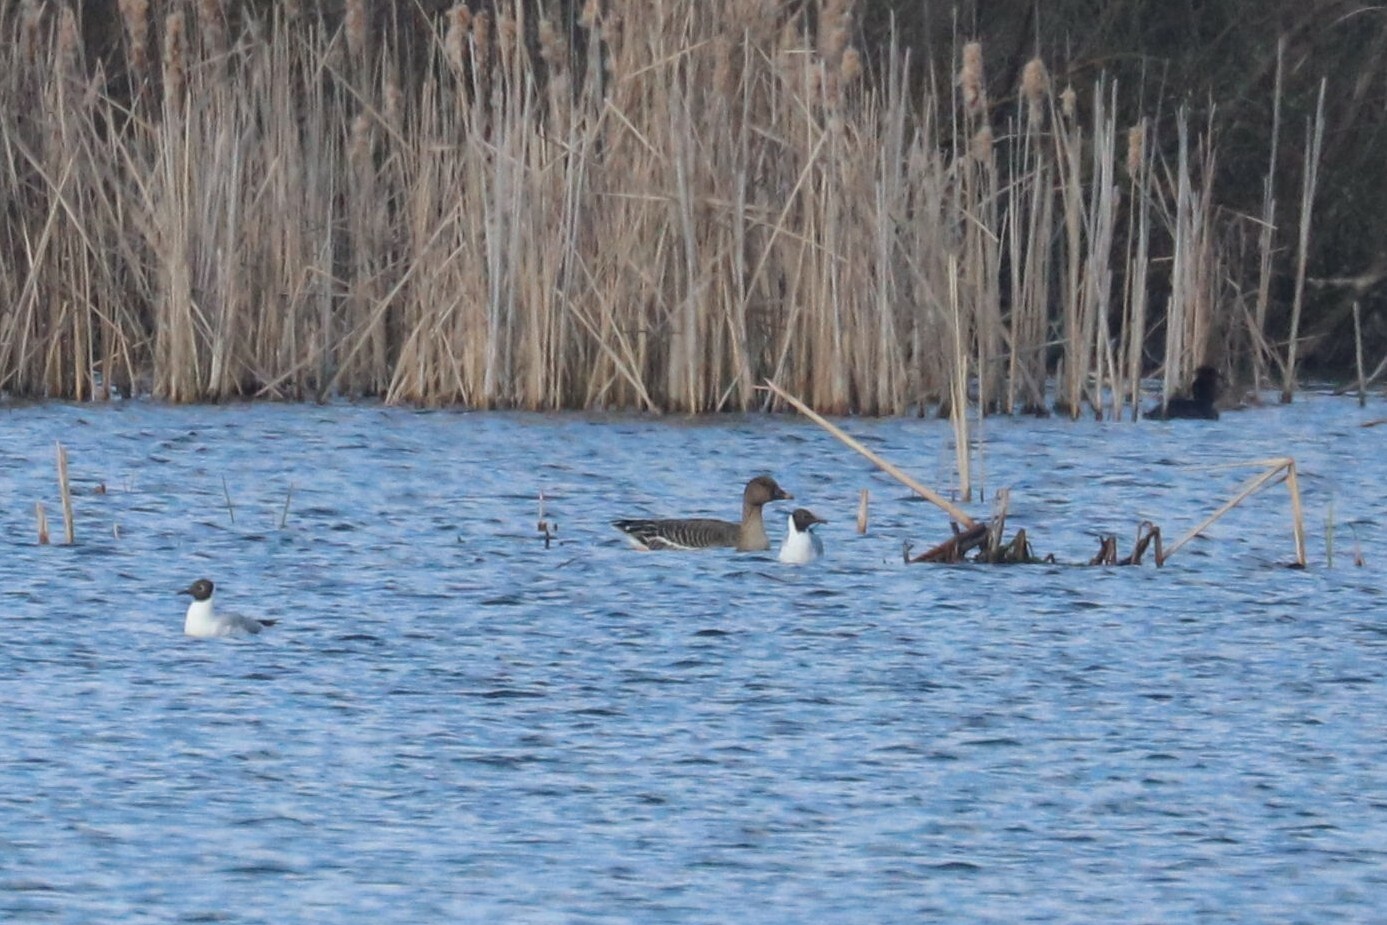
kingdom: Animalia
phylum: Chordata
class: Aves
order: Anseriformes
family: Anatidae
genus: Anser
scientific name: Anser serrirostris
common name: Tundra bean goose
